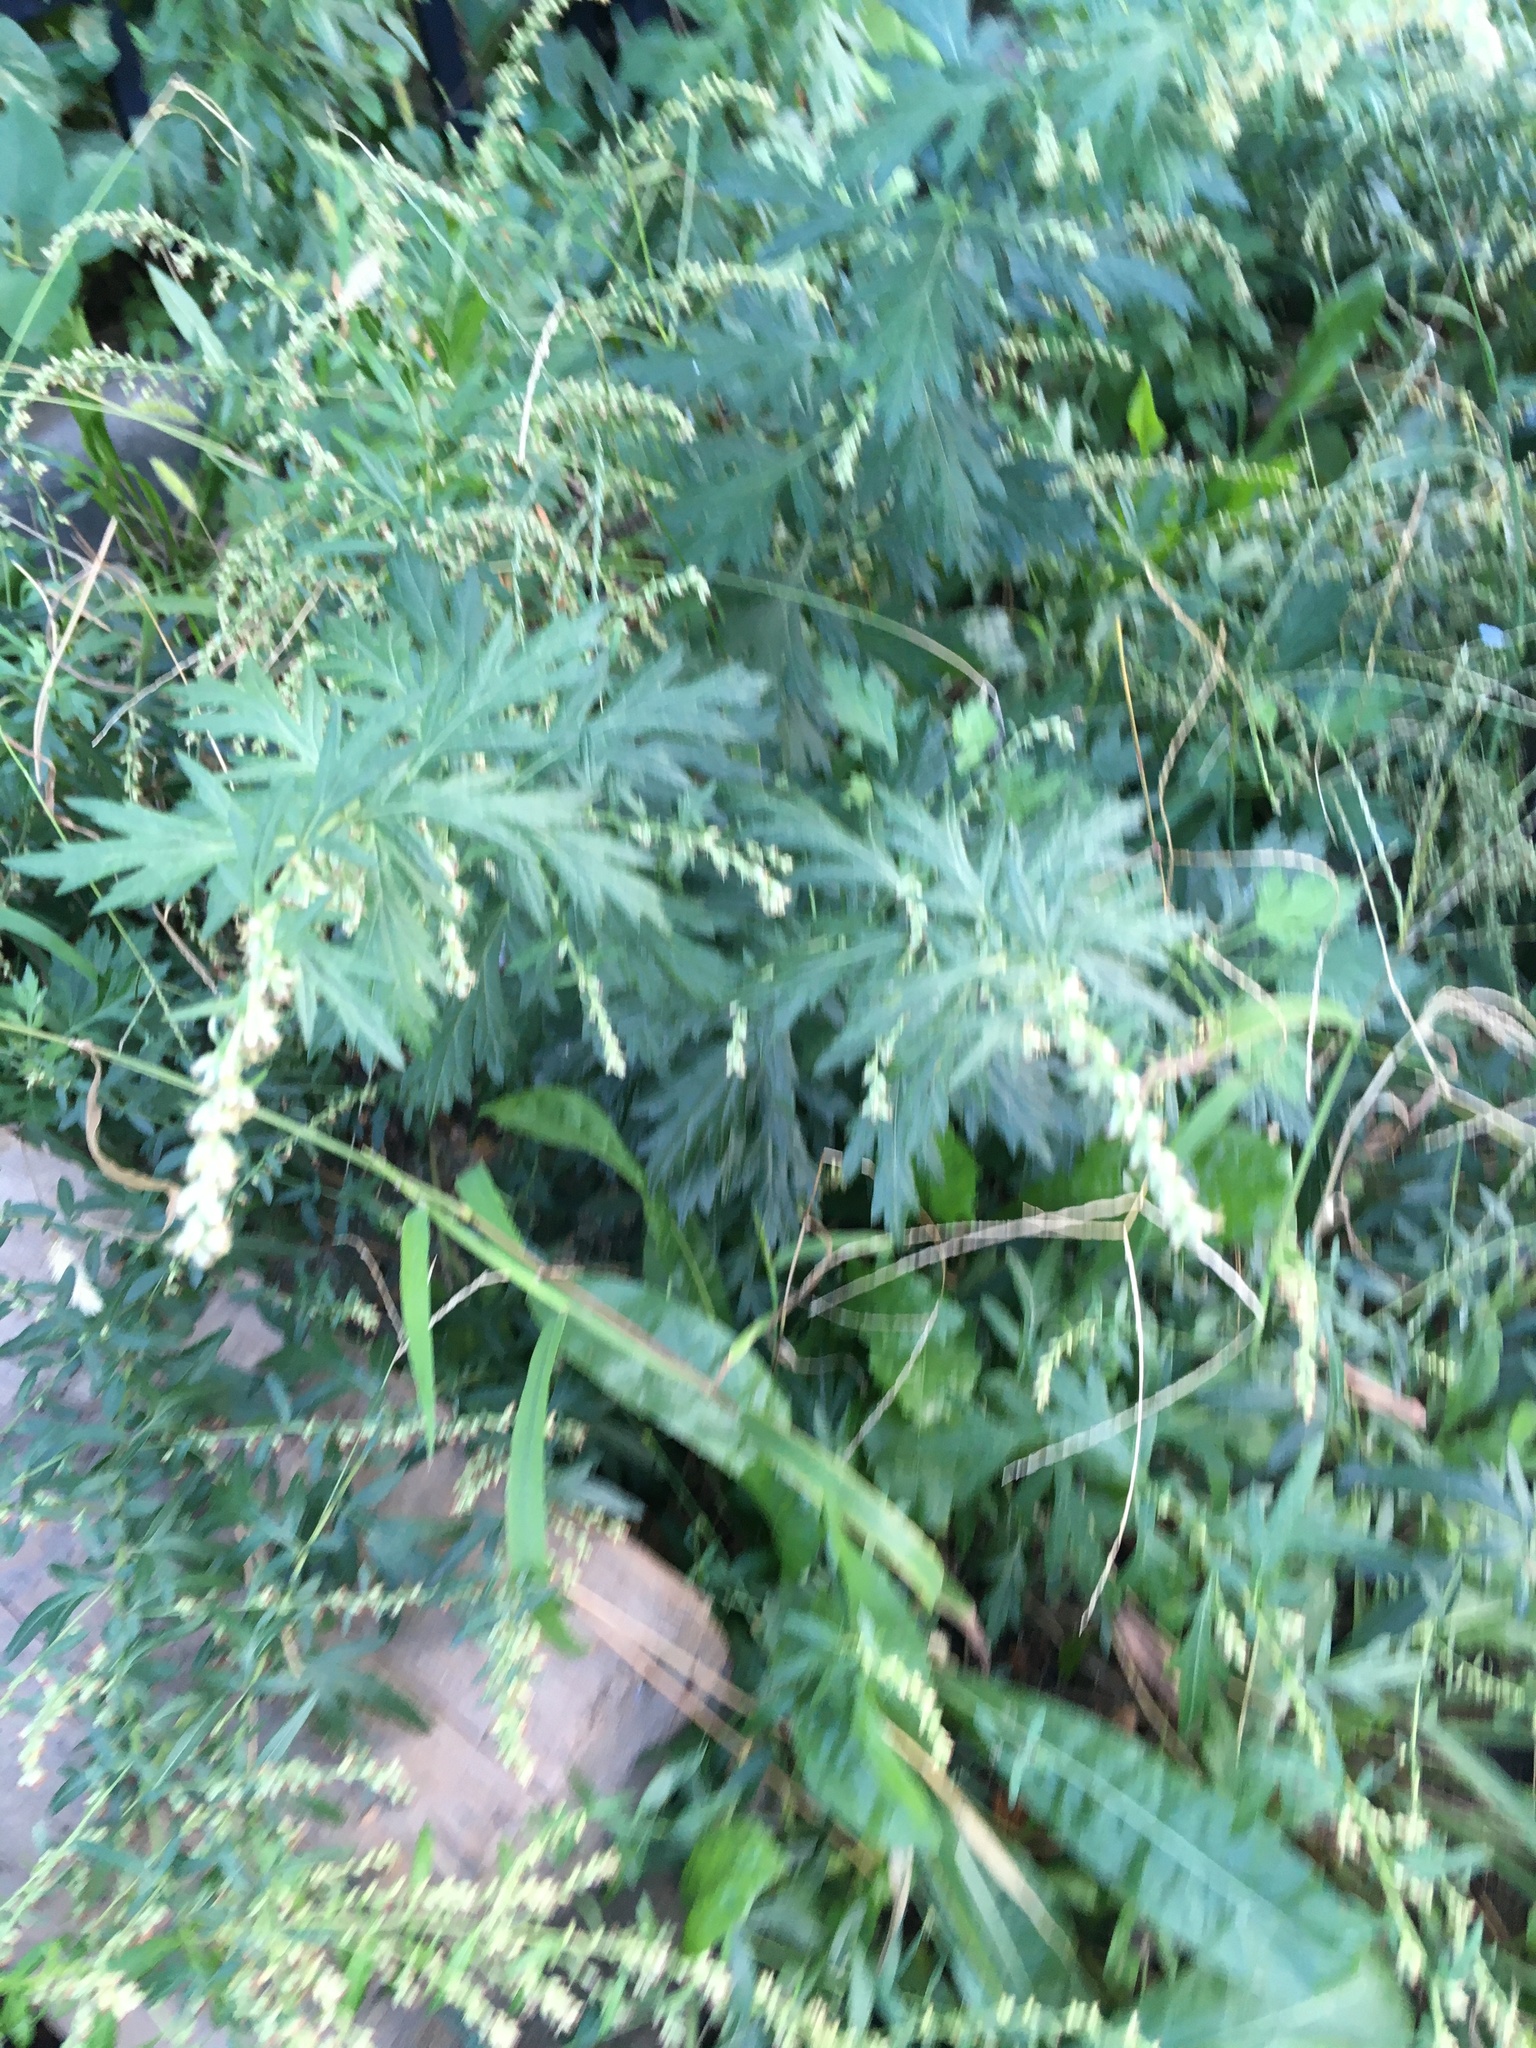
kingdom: Plantae
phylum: Tracheophyta
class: Magnoliopsida
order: Asterales
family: Asteraceae
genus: Artemisia
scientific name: Artemisia vulgaris
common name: Mugwort
